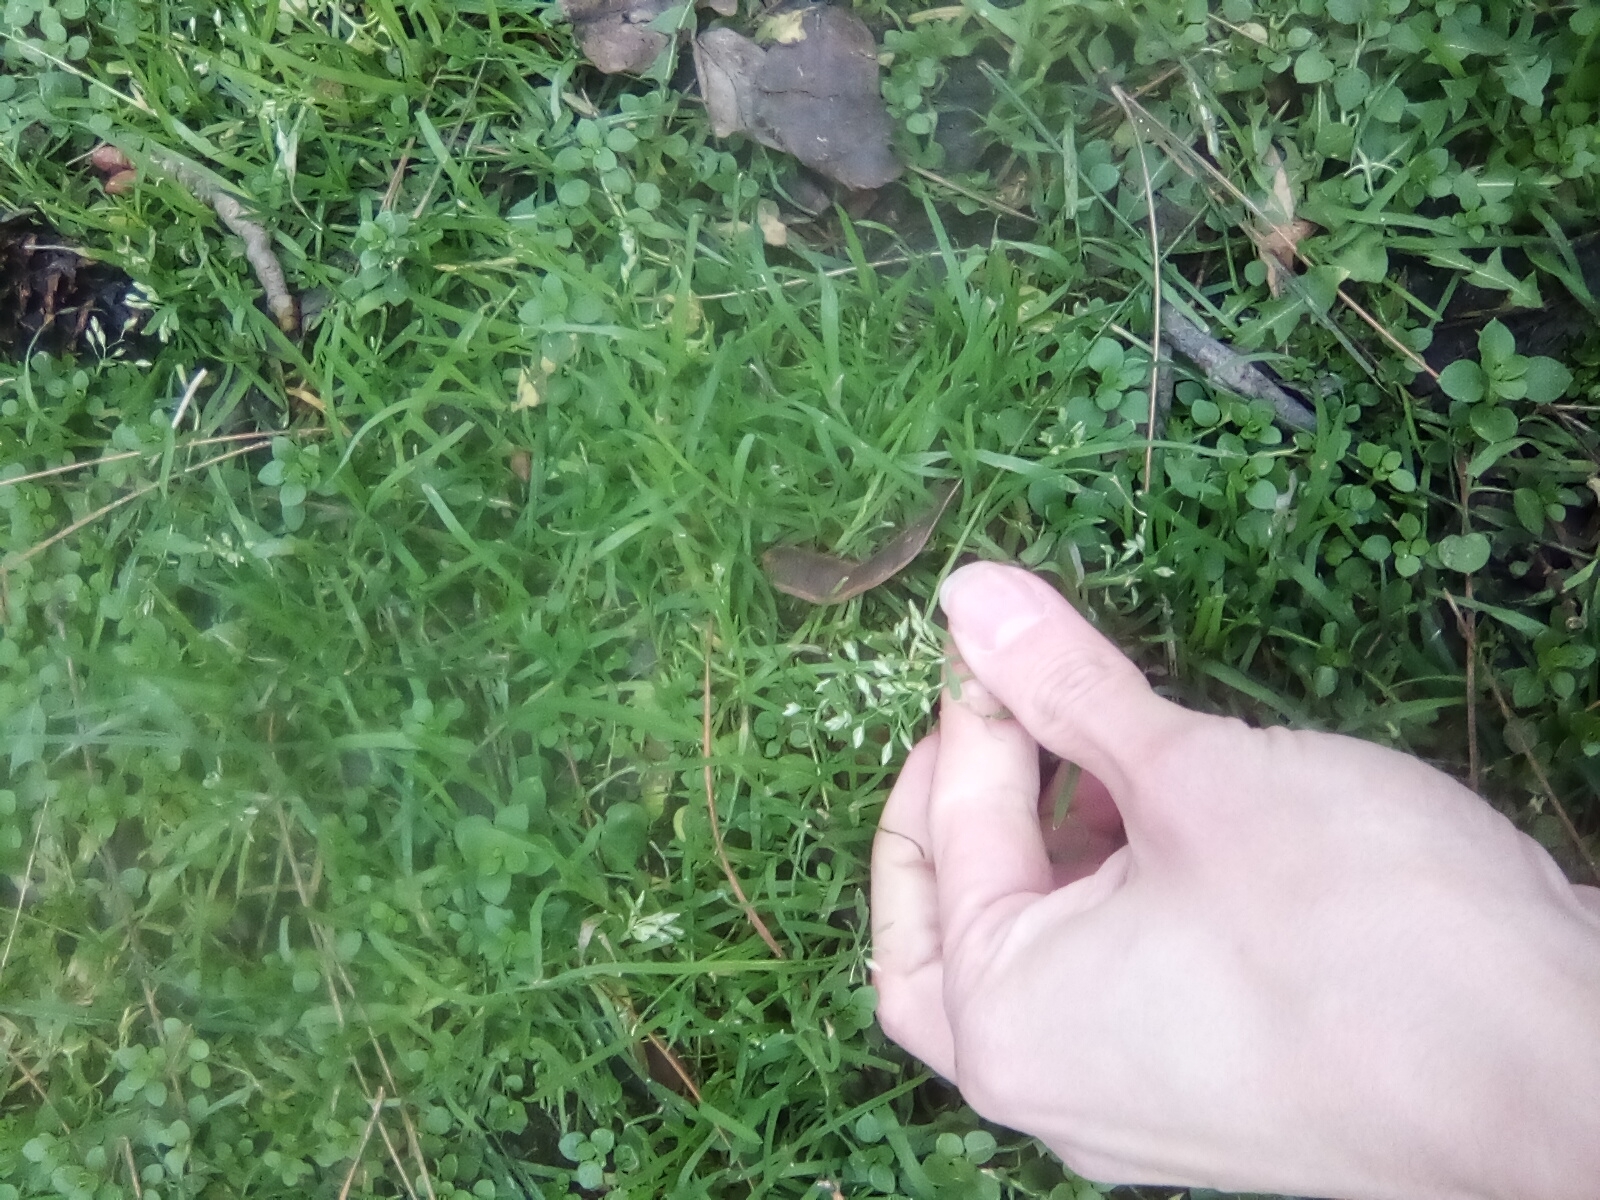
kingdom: Plantae
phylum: Tracheophyta
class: Liliopsida
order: Poales
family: Poaceae
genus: Poa
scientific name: Poa annua
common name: Annual bluegrass
